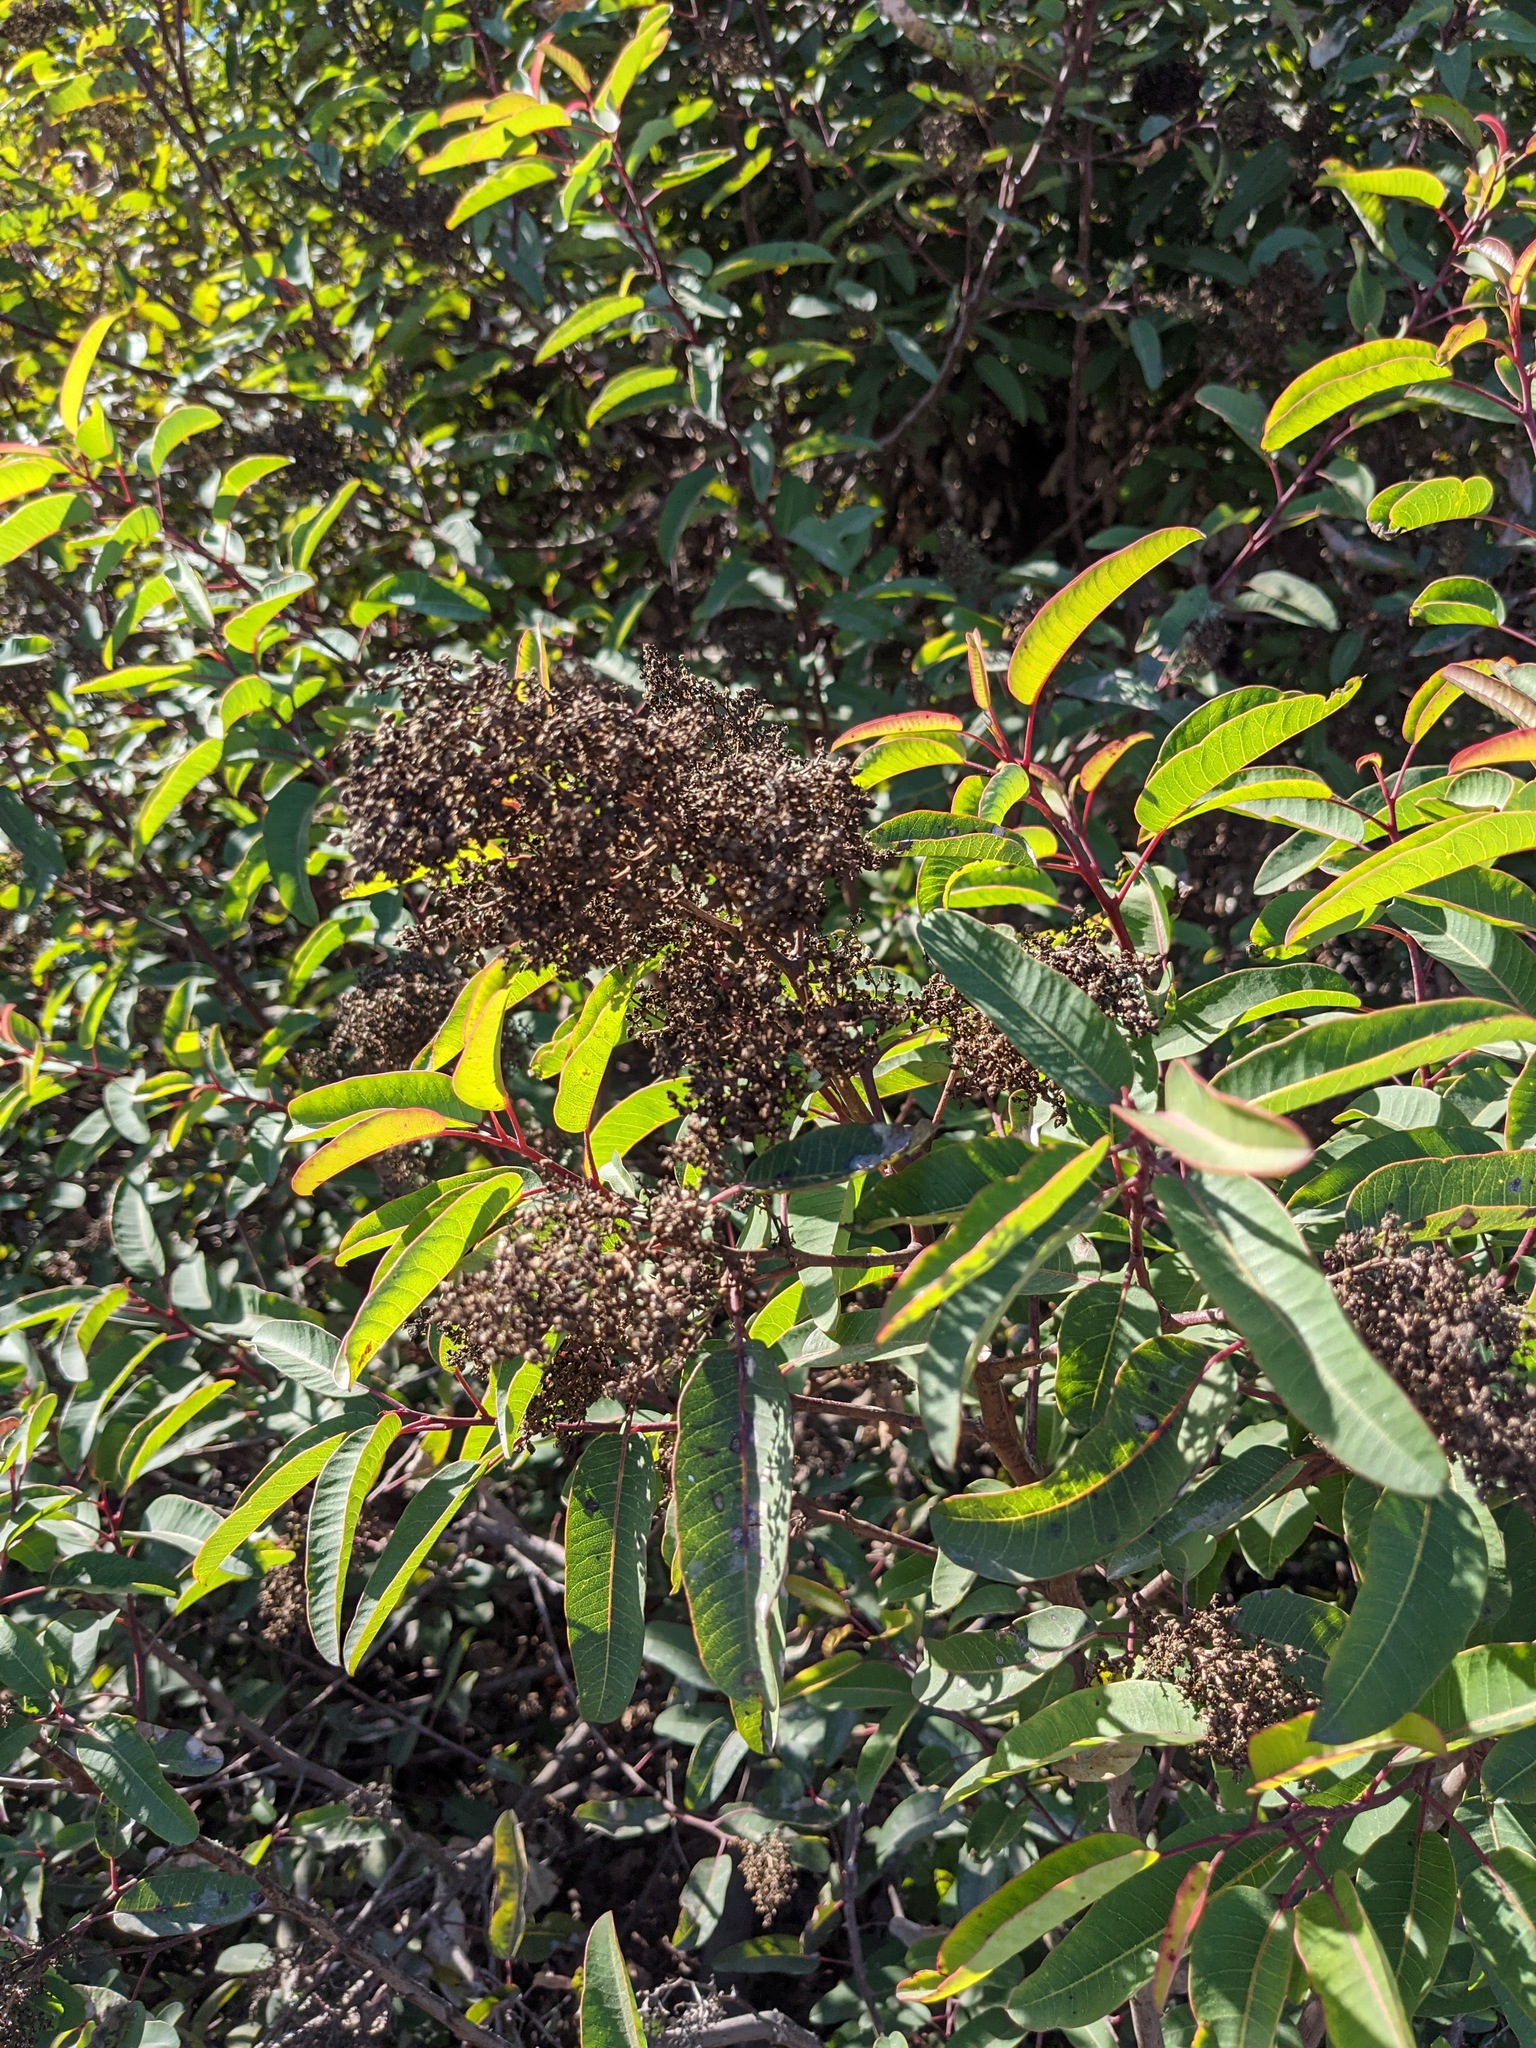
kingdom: Plantae
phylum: Tracheophyta
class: Magnoliopsida
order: Sapindales
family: Anacardiaceae
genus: Malosma
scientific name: Malosma laurina
